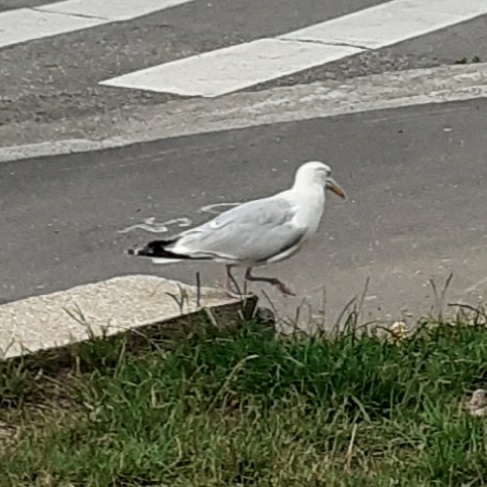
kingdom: Animalia
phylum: Chordata
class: Aves
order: Charadriiformes
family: Laridae
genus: Larus
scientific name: Larus argentatus
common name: Herring gull
